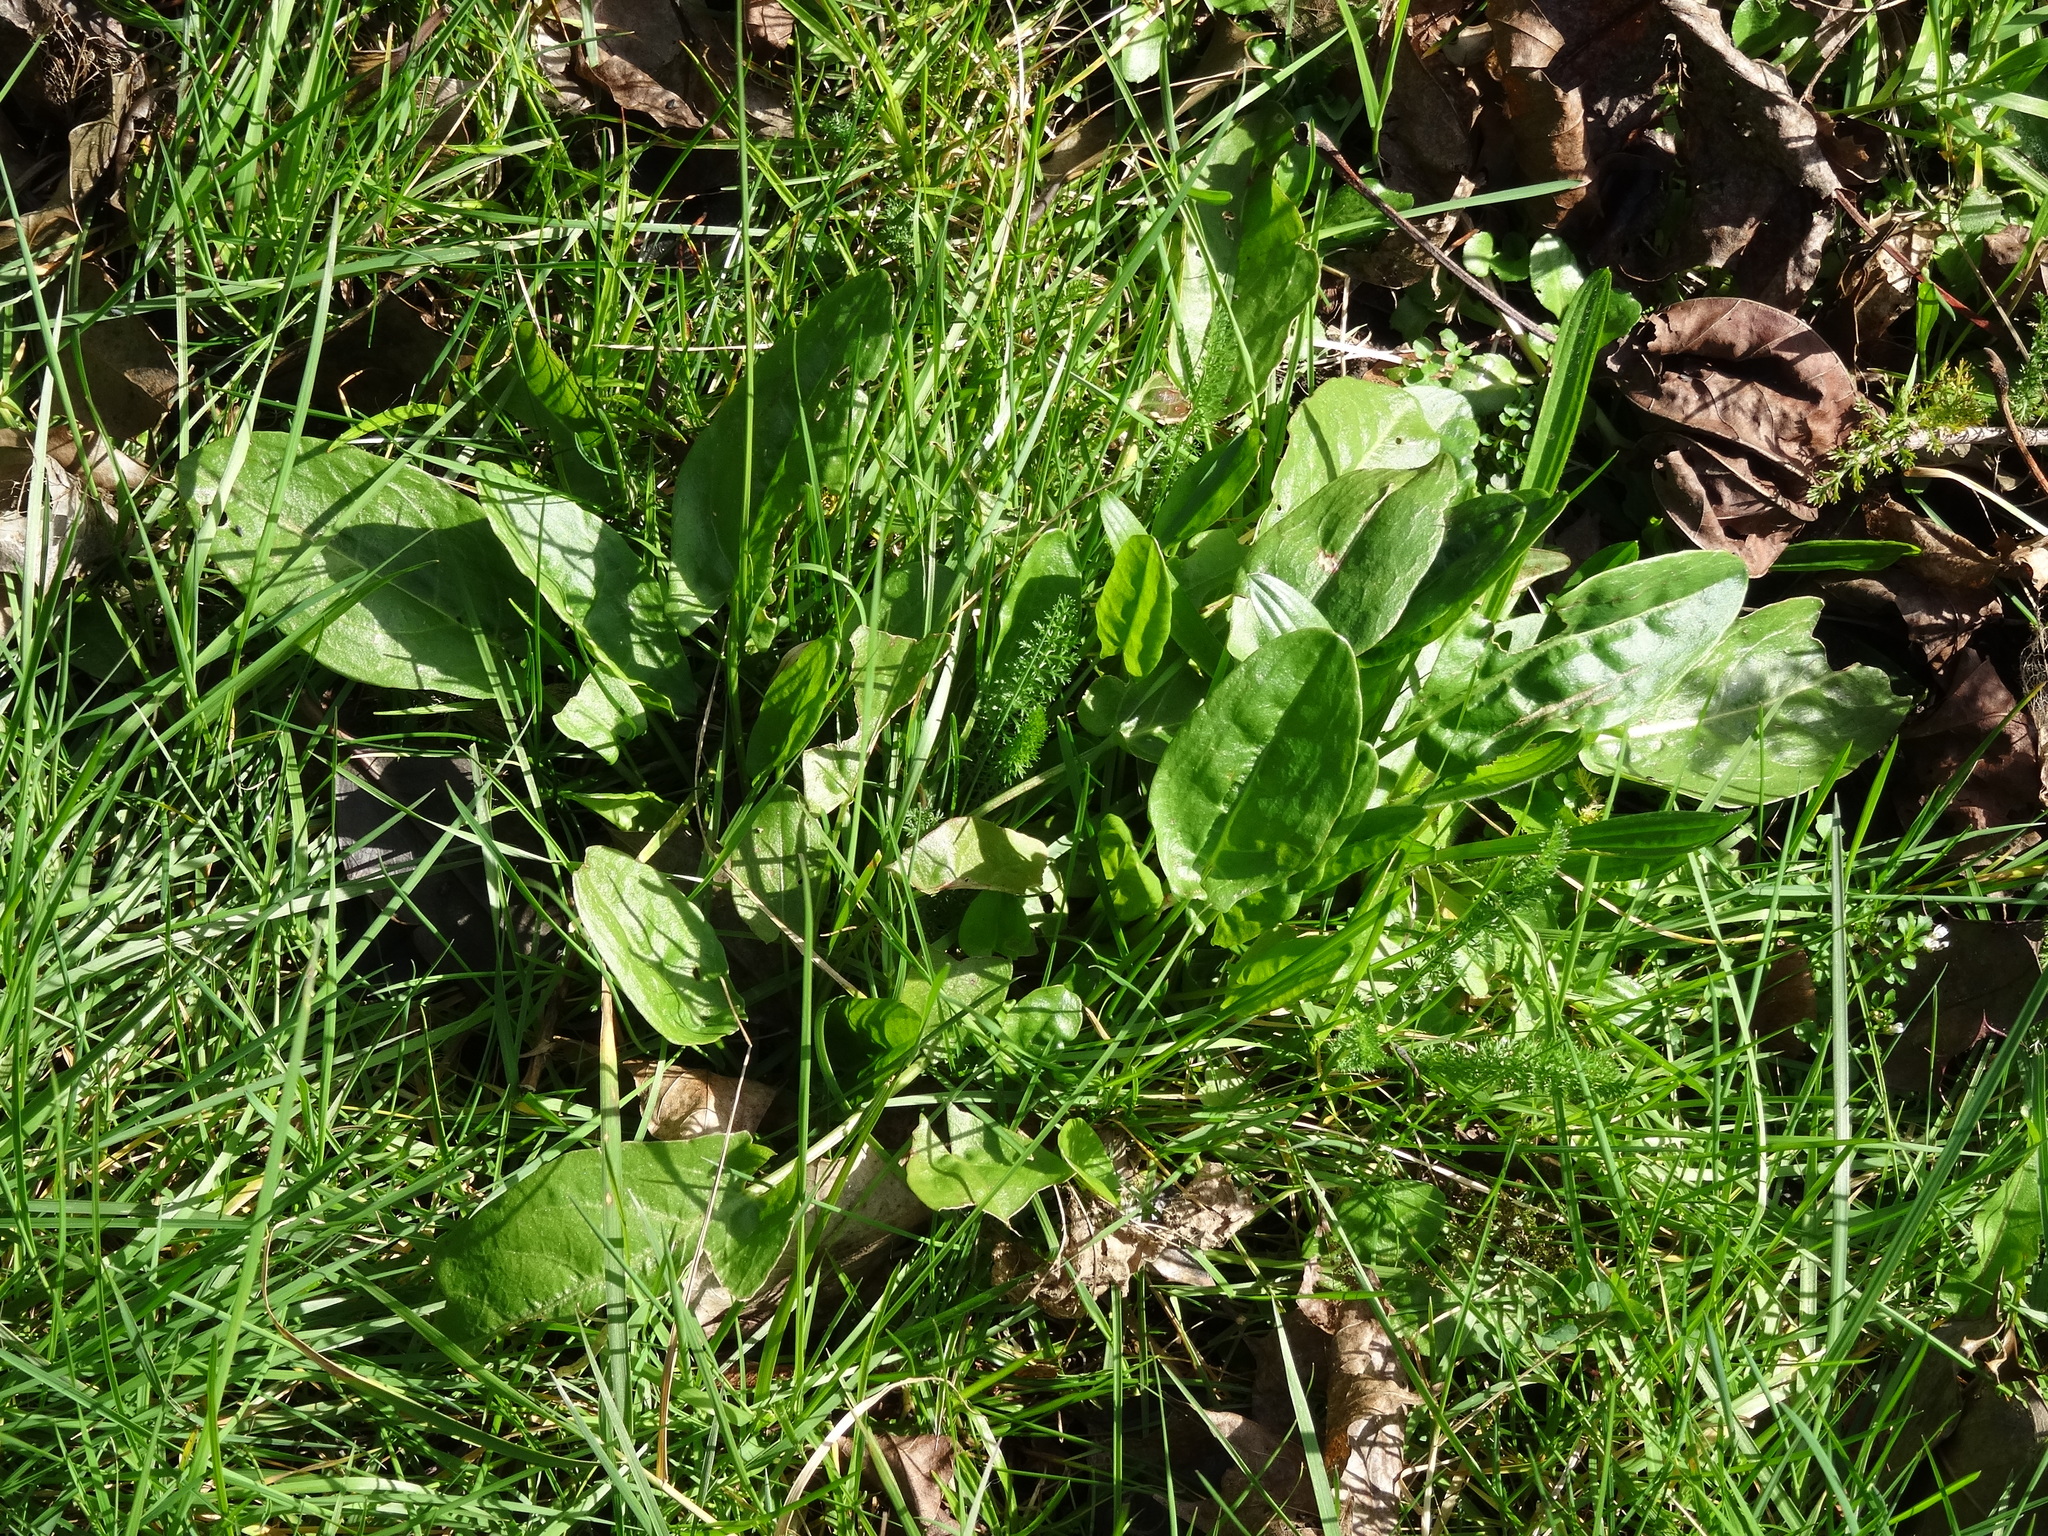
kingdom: Plantae
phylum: Tracheophyta
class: Magnoliopsida
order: Caryophyllales
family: Polygonaceae
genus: Rumex
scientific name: Rumex acetosa
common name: Garden sorrel
